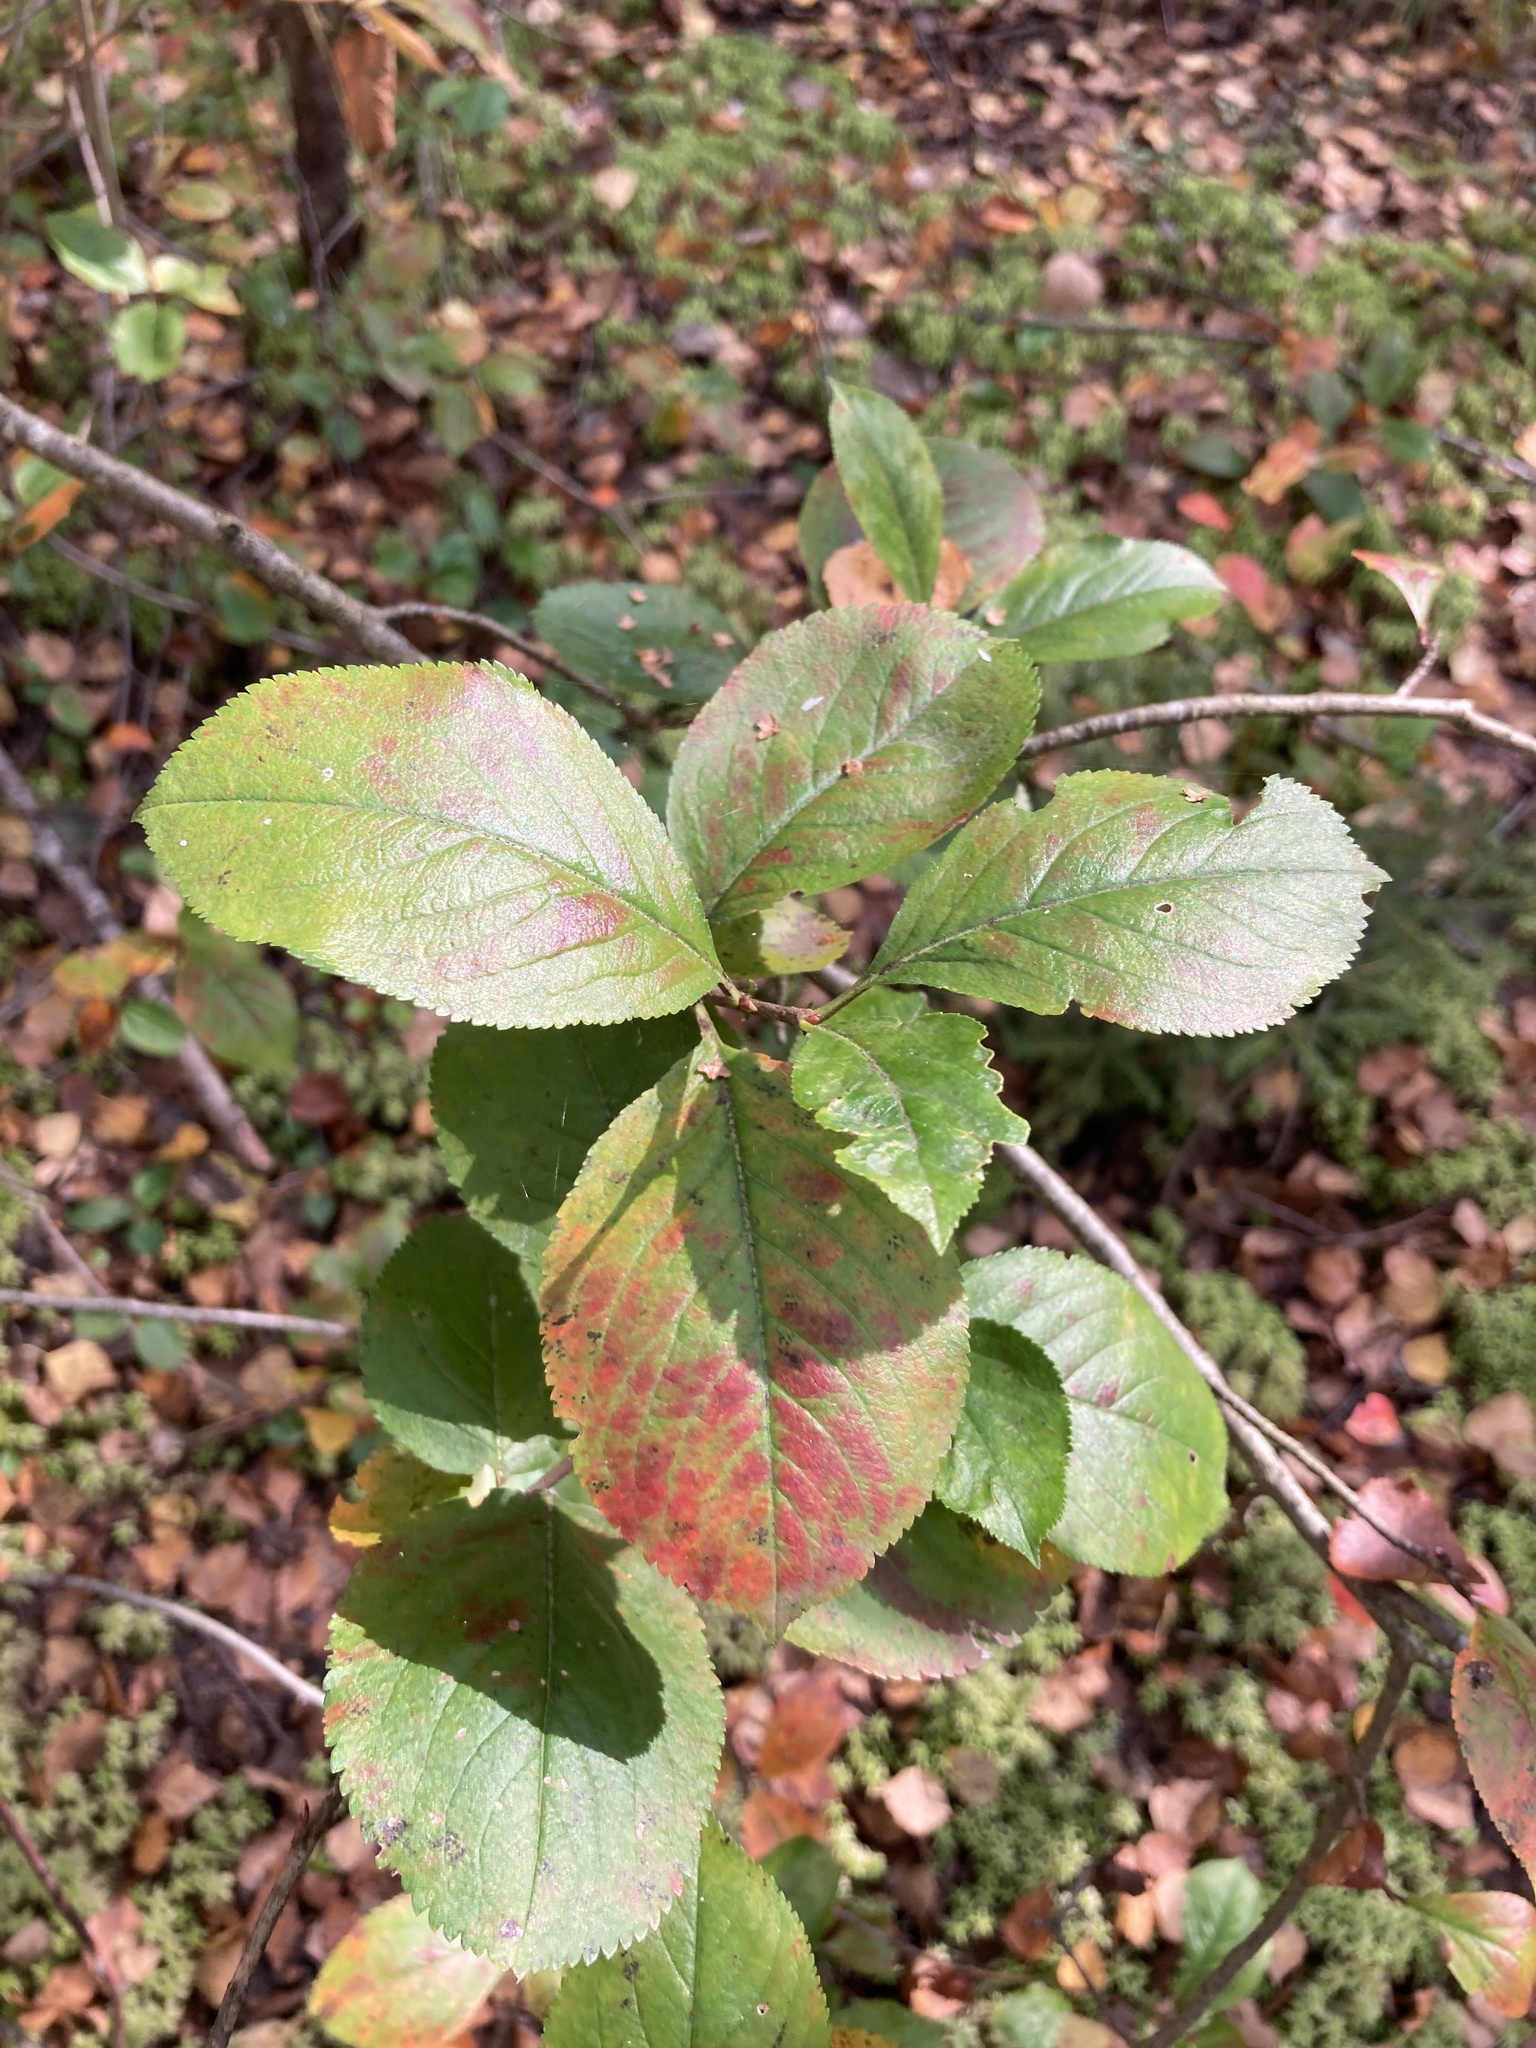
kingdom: Plantae
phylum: Tracheophyta
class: Magnoliopsida
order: Rosales
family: Rosaceae
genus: Sorbaronia
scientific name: Sorbaronia arsenii
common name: Arsène's mountain-ash
